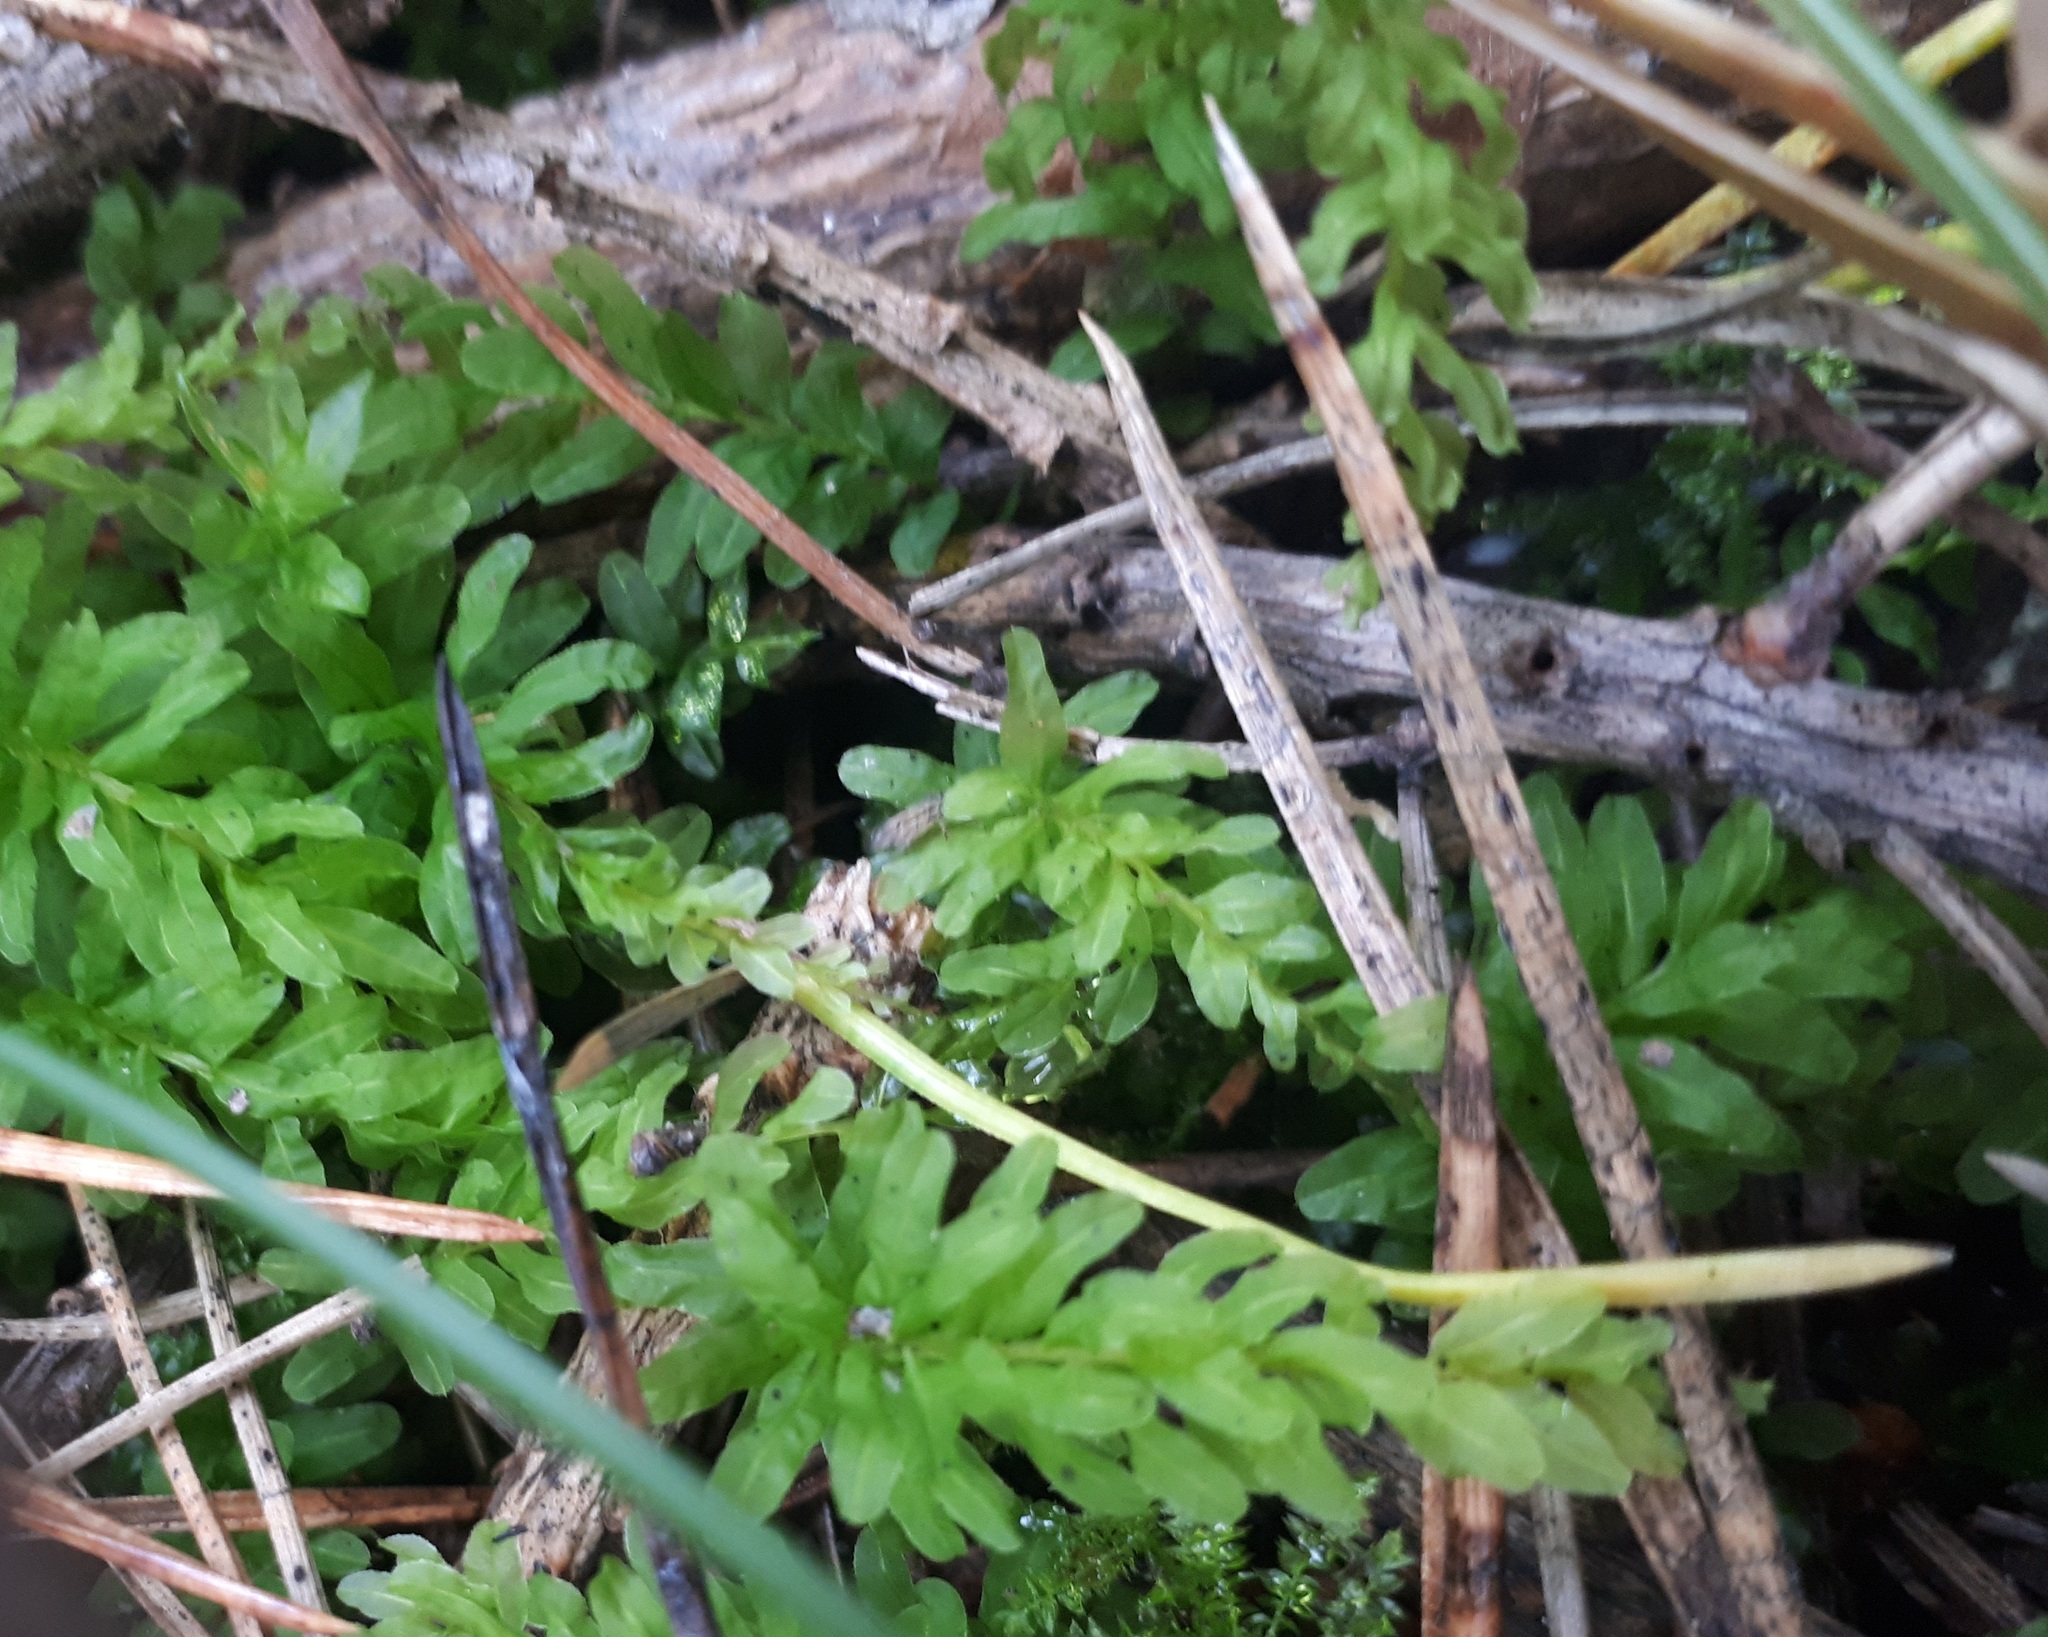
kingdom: Plantae
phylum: Bryophyta
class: Bryopsida
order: Bryales
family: Mniaceae
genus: Plagiomnium
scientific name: Plagiomnium undulatum
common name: Hart's-tongue thyme-moss
